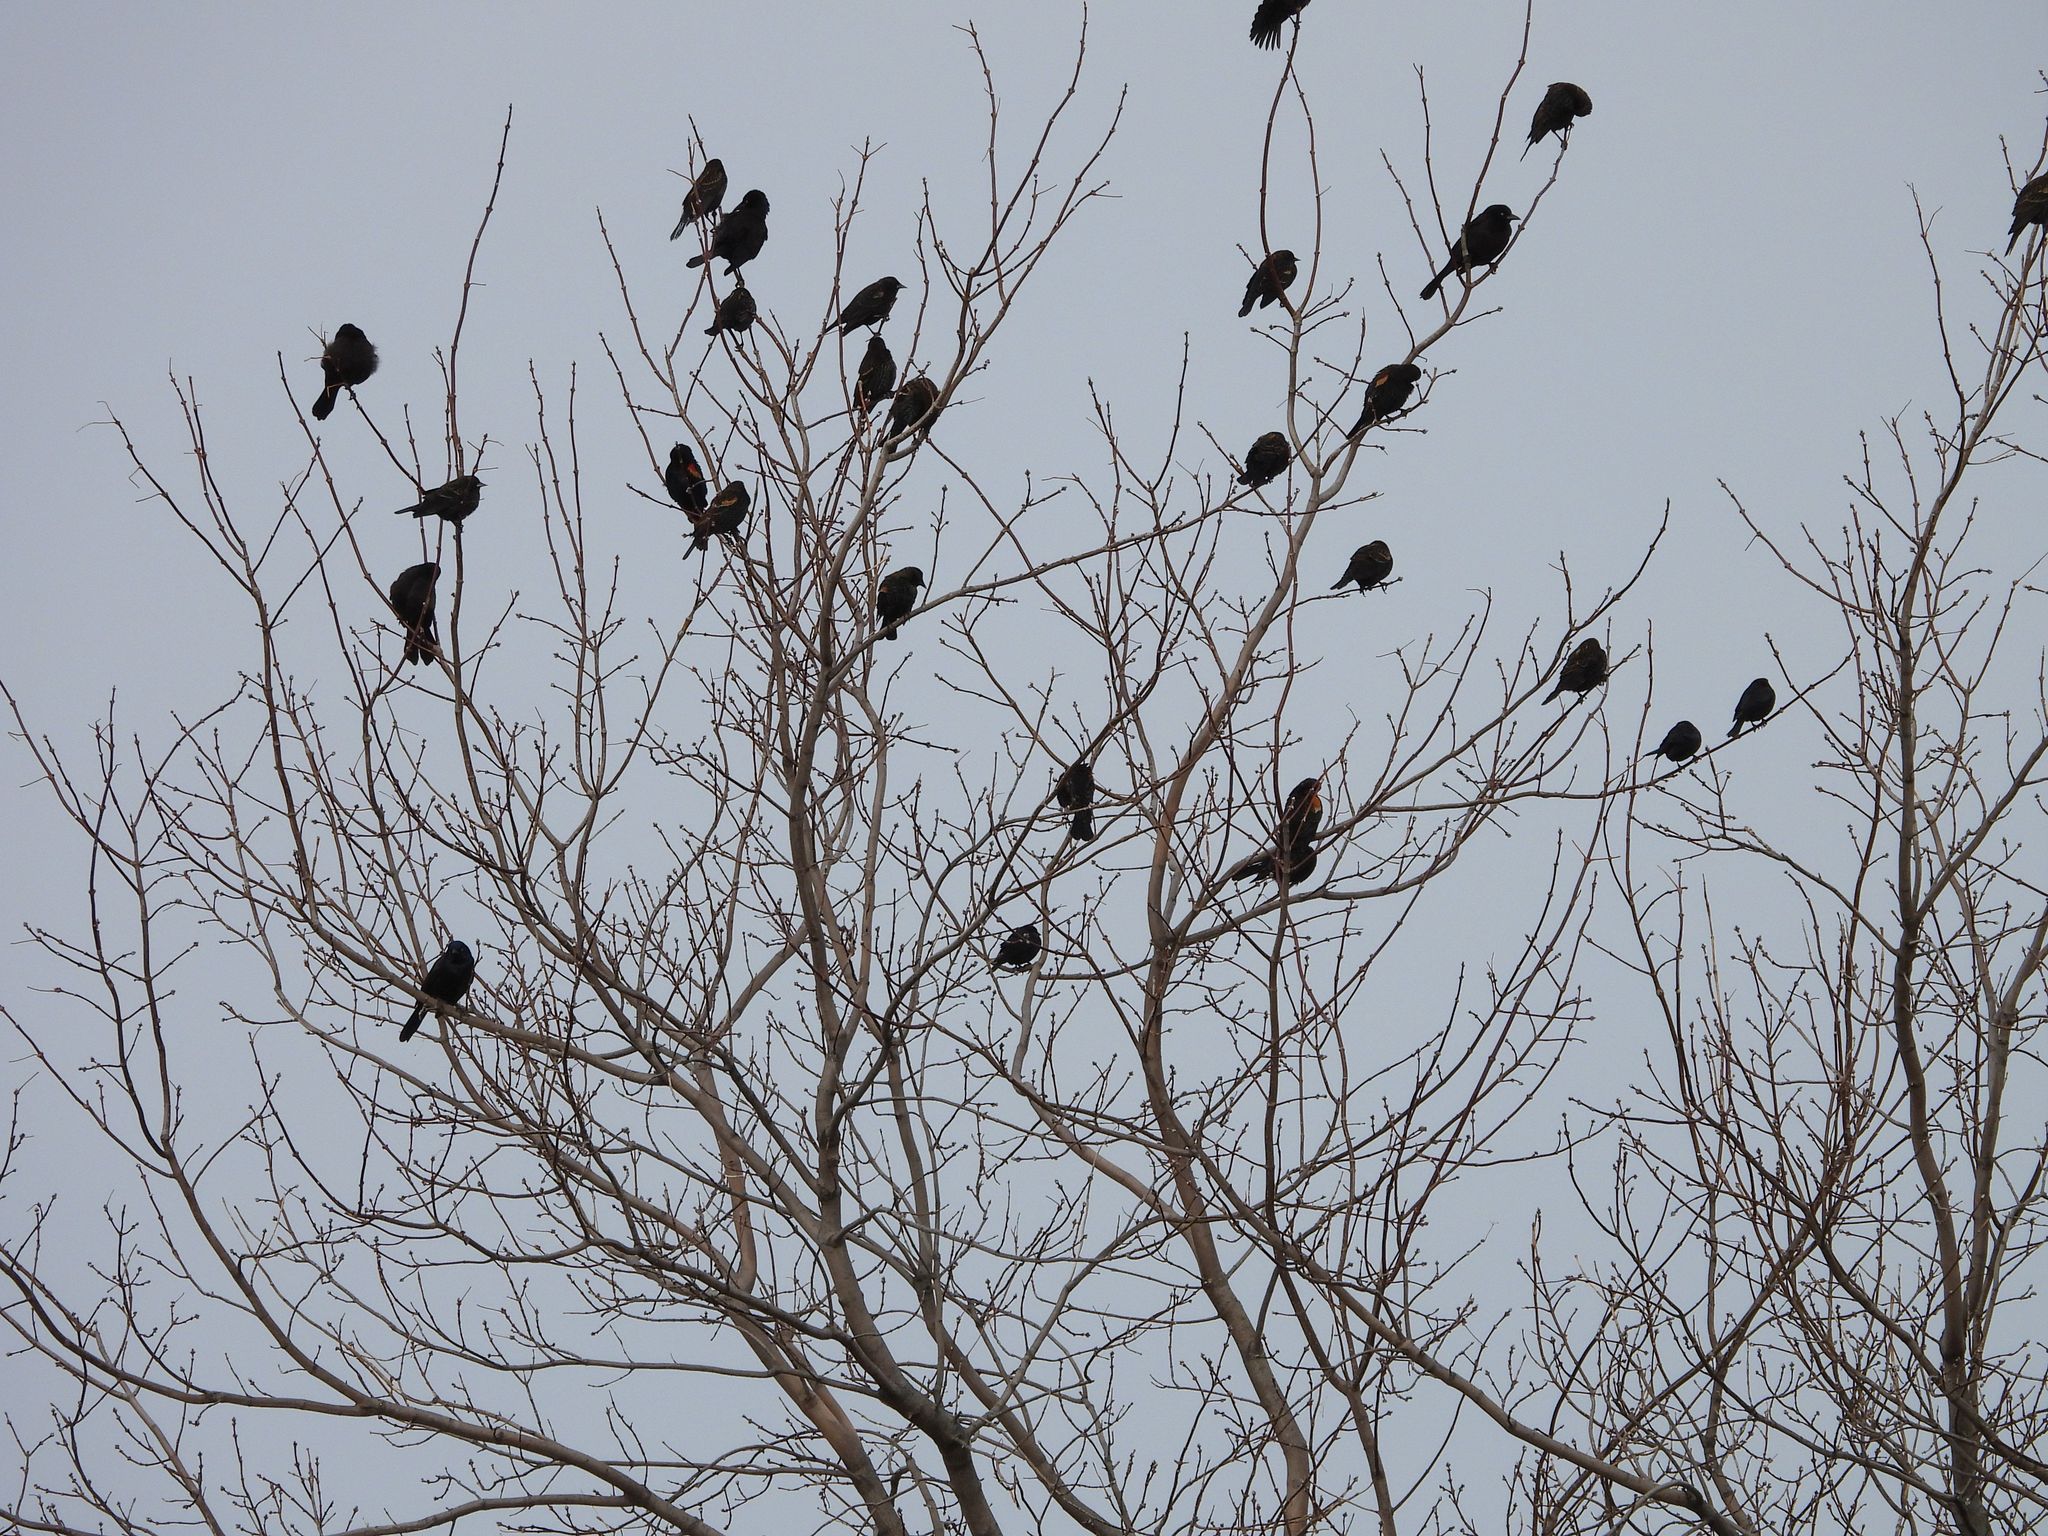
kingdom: Animalia
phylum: Chordata
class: Aves
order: Passeriformes
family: Icteridae
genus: Agelaius
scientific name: Agelaius phoeniceus
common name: Red-winged blackbird
